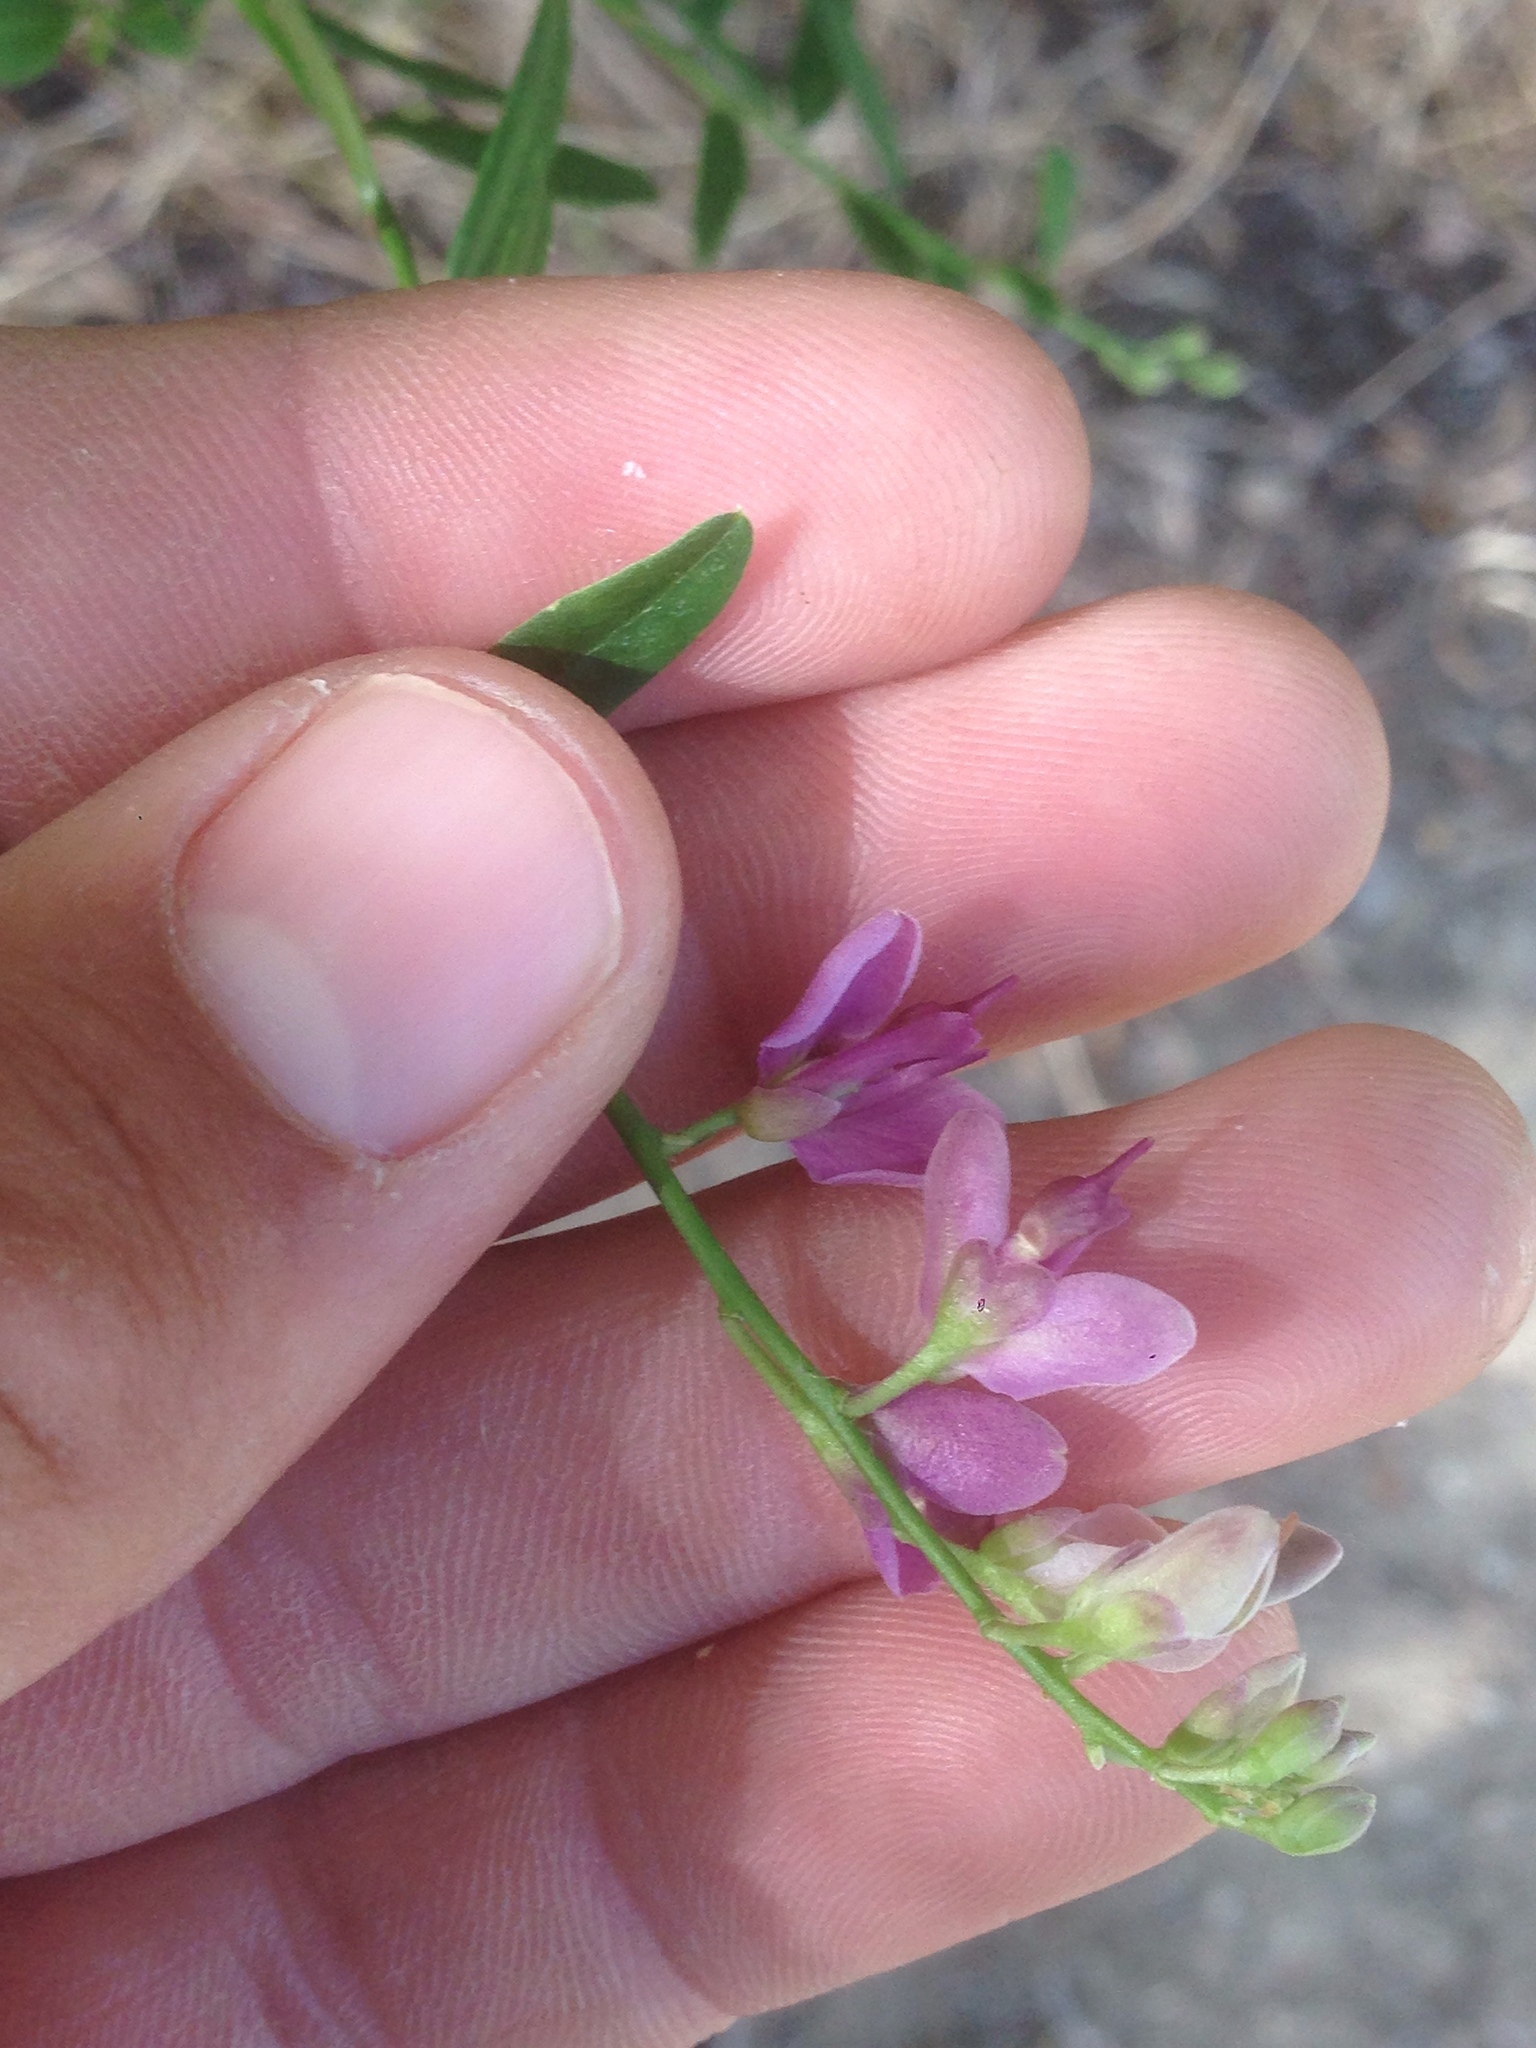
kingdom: Plantae
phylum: Tracheophyta
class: Magnoliopsida
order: Fabales
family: Polygalaceae
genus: Rhinotropis
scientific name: Rhinotropis cornuta
